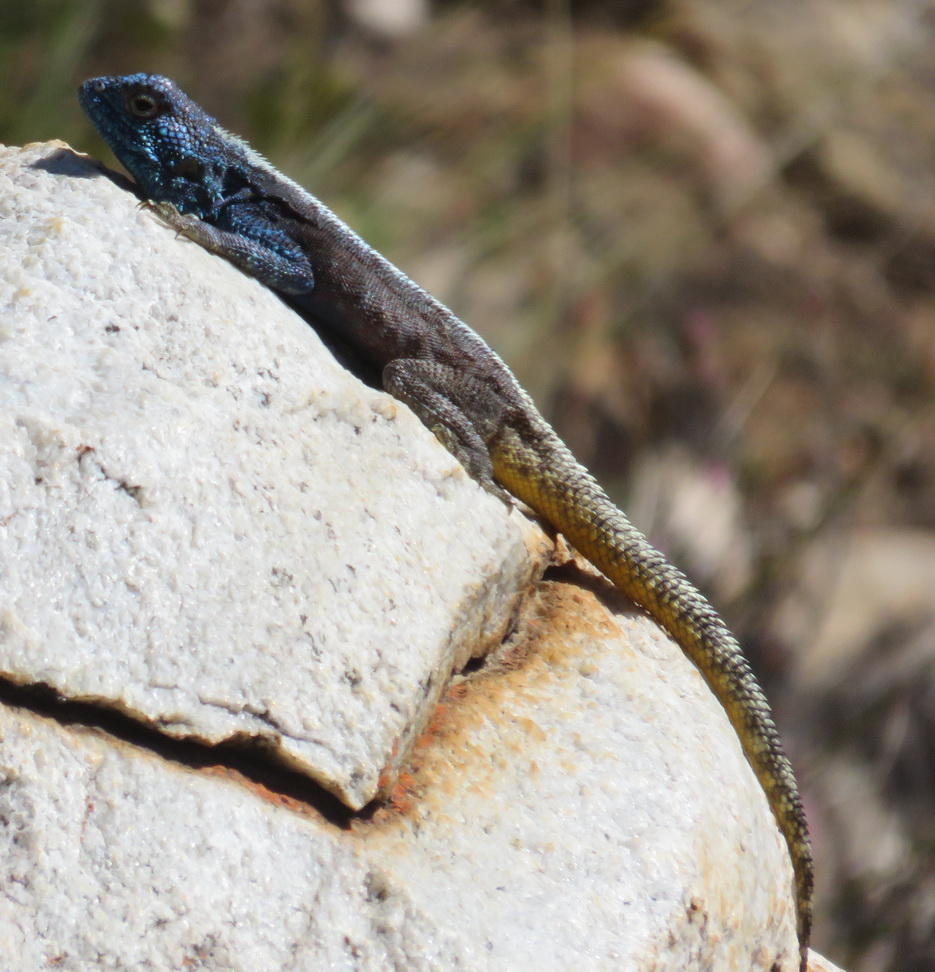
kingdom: Animalia
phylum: Chordata
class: Squamata
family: Agamidae
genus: Agama
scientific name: Agama atra
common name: Southern african rock agama
